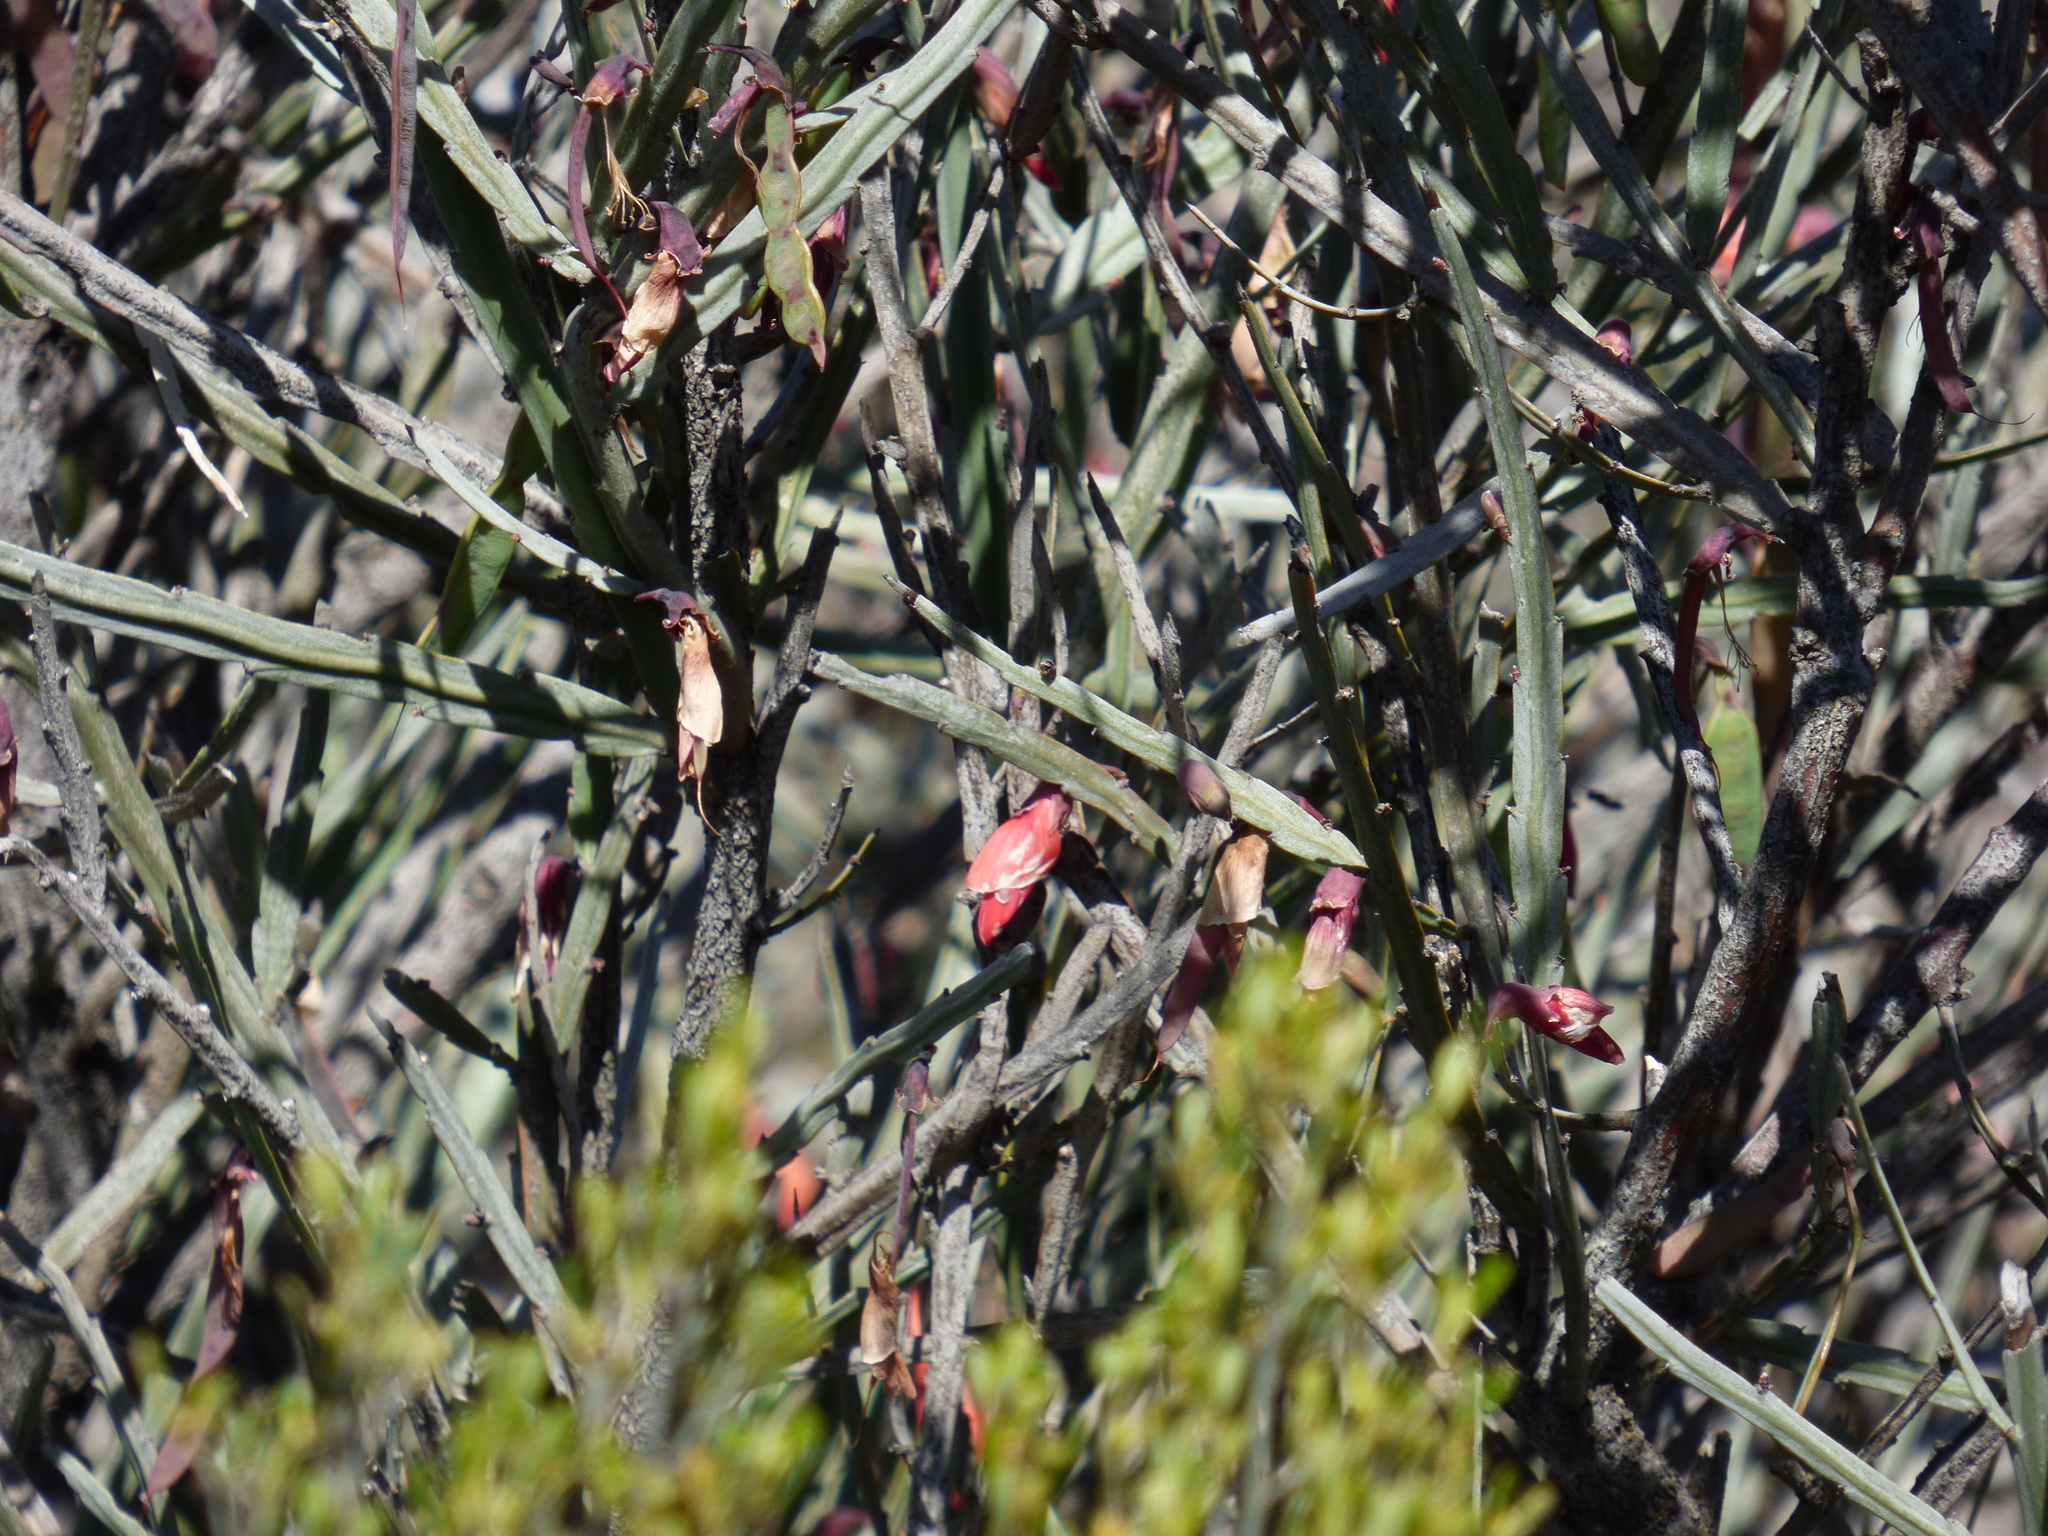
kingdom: Plantae
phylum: Tracheophyta
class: Magnoliopsida
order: Fabales
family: Fabaceae
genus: Bossiaea
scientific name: Bossiaea walkeri
